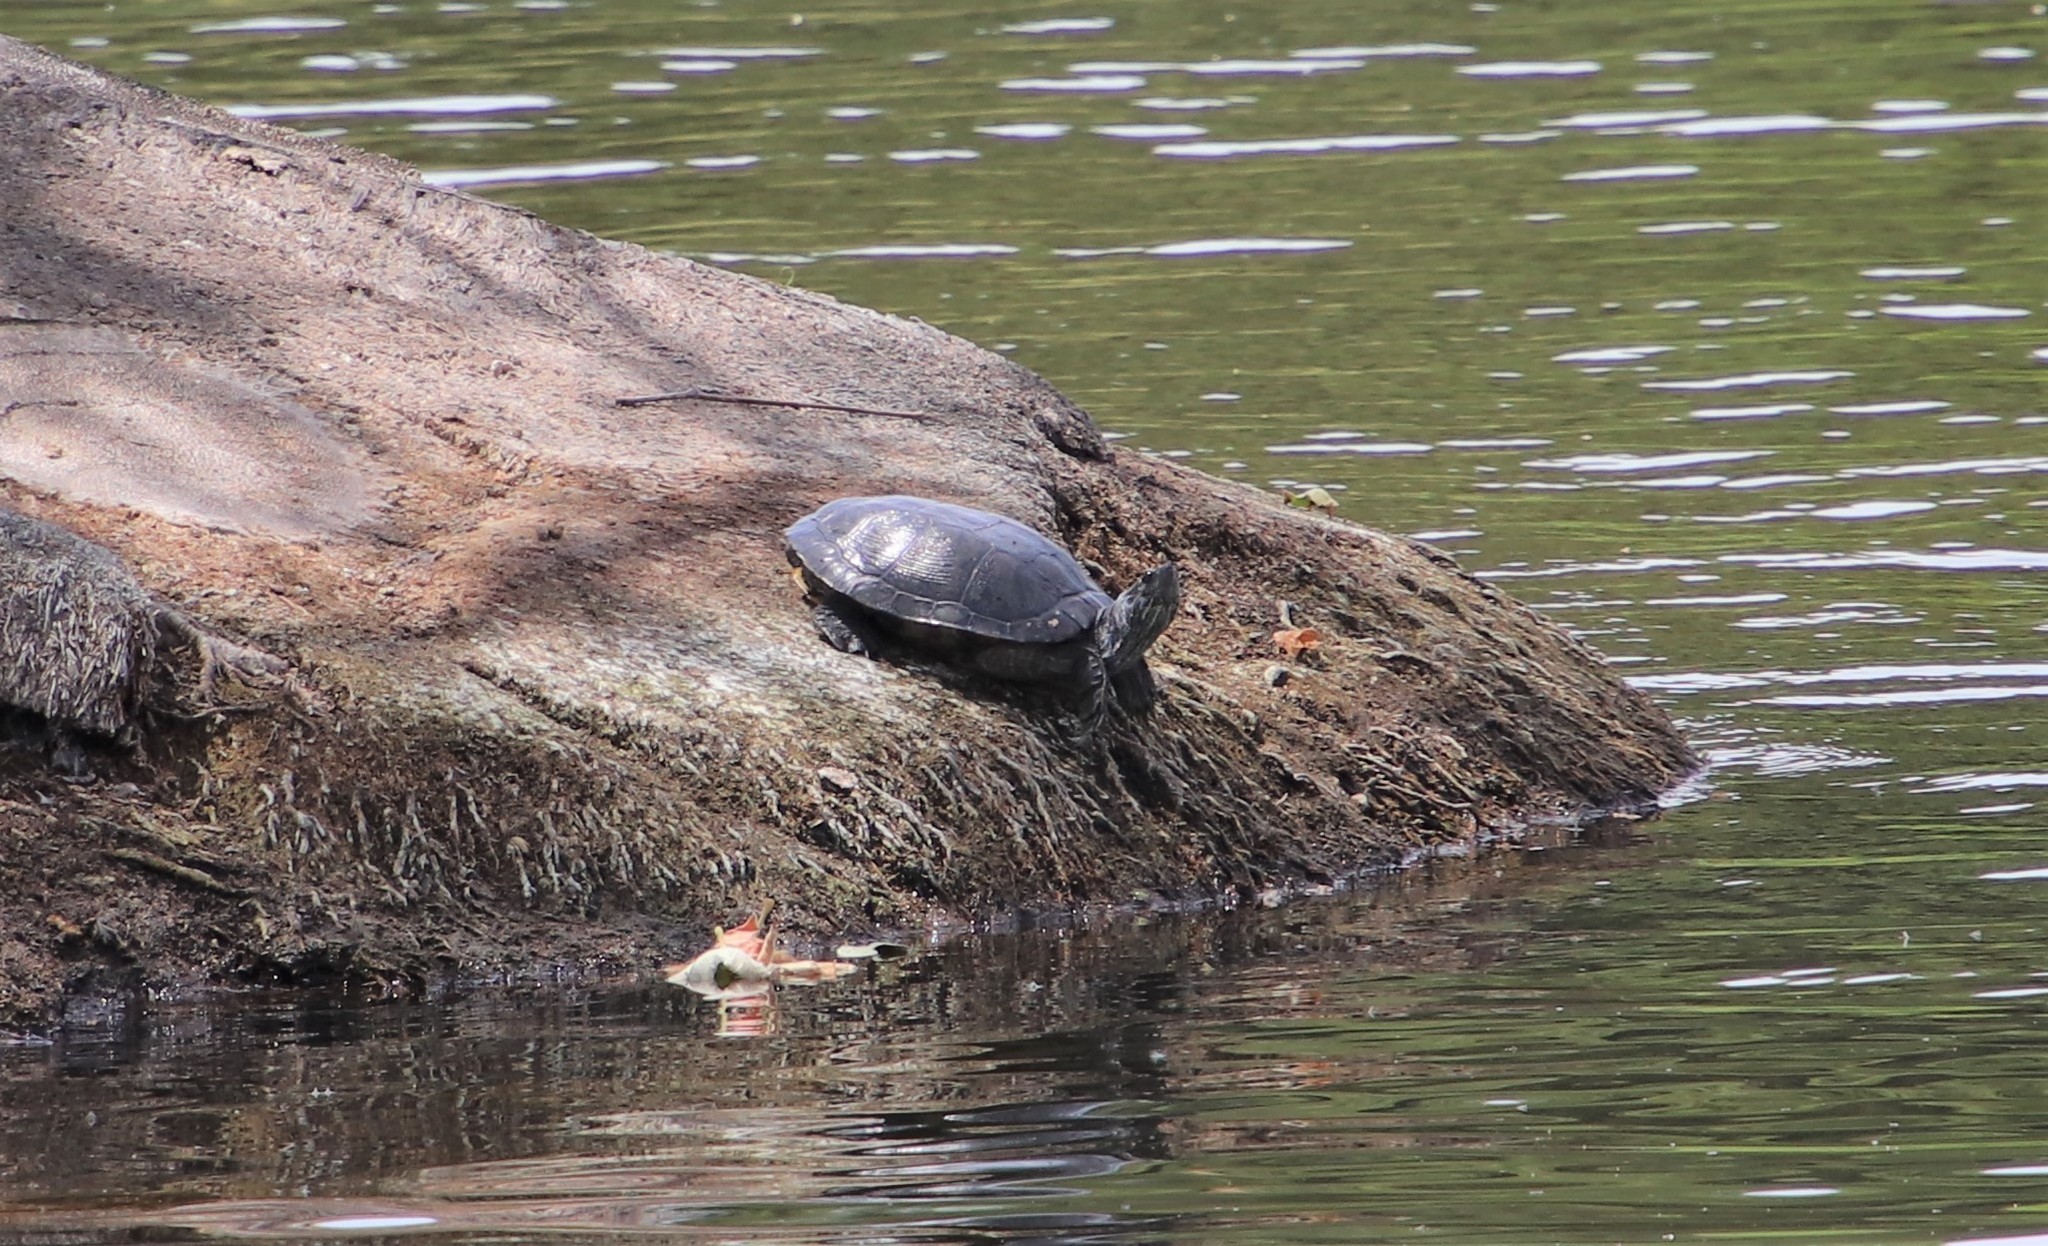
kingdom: Animalia
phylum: Chordata
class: Testudines
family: Emydidae
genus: Trachemys
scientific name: Trachemys scripta
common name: Slider
